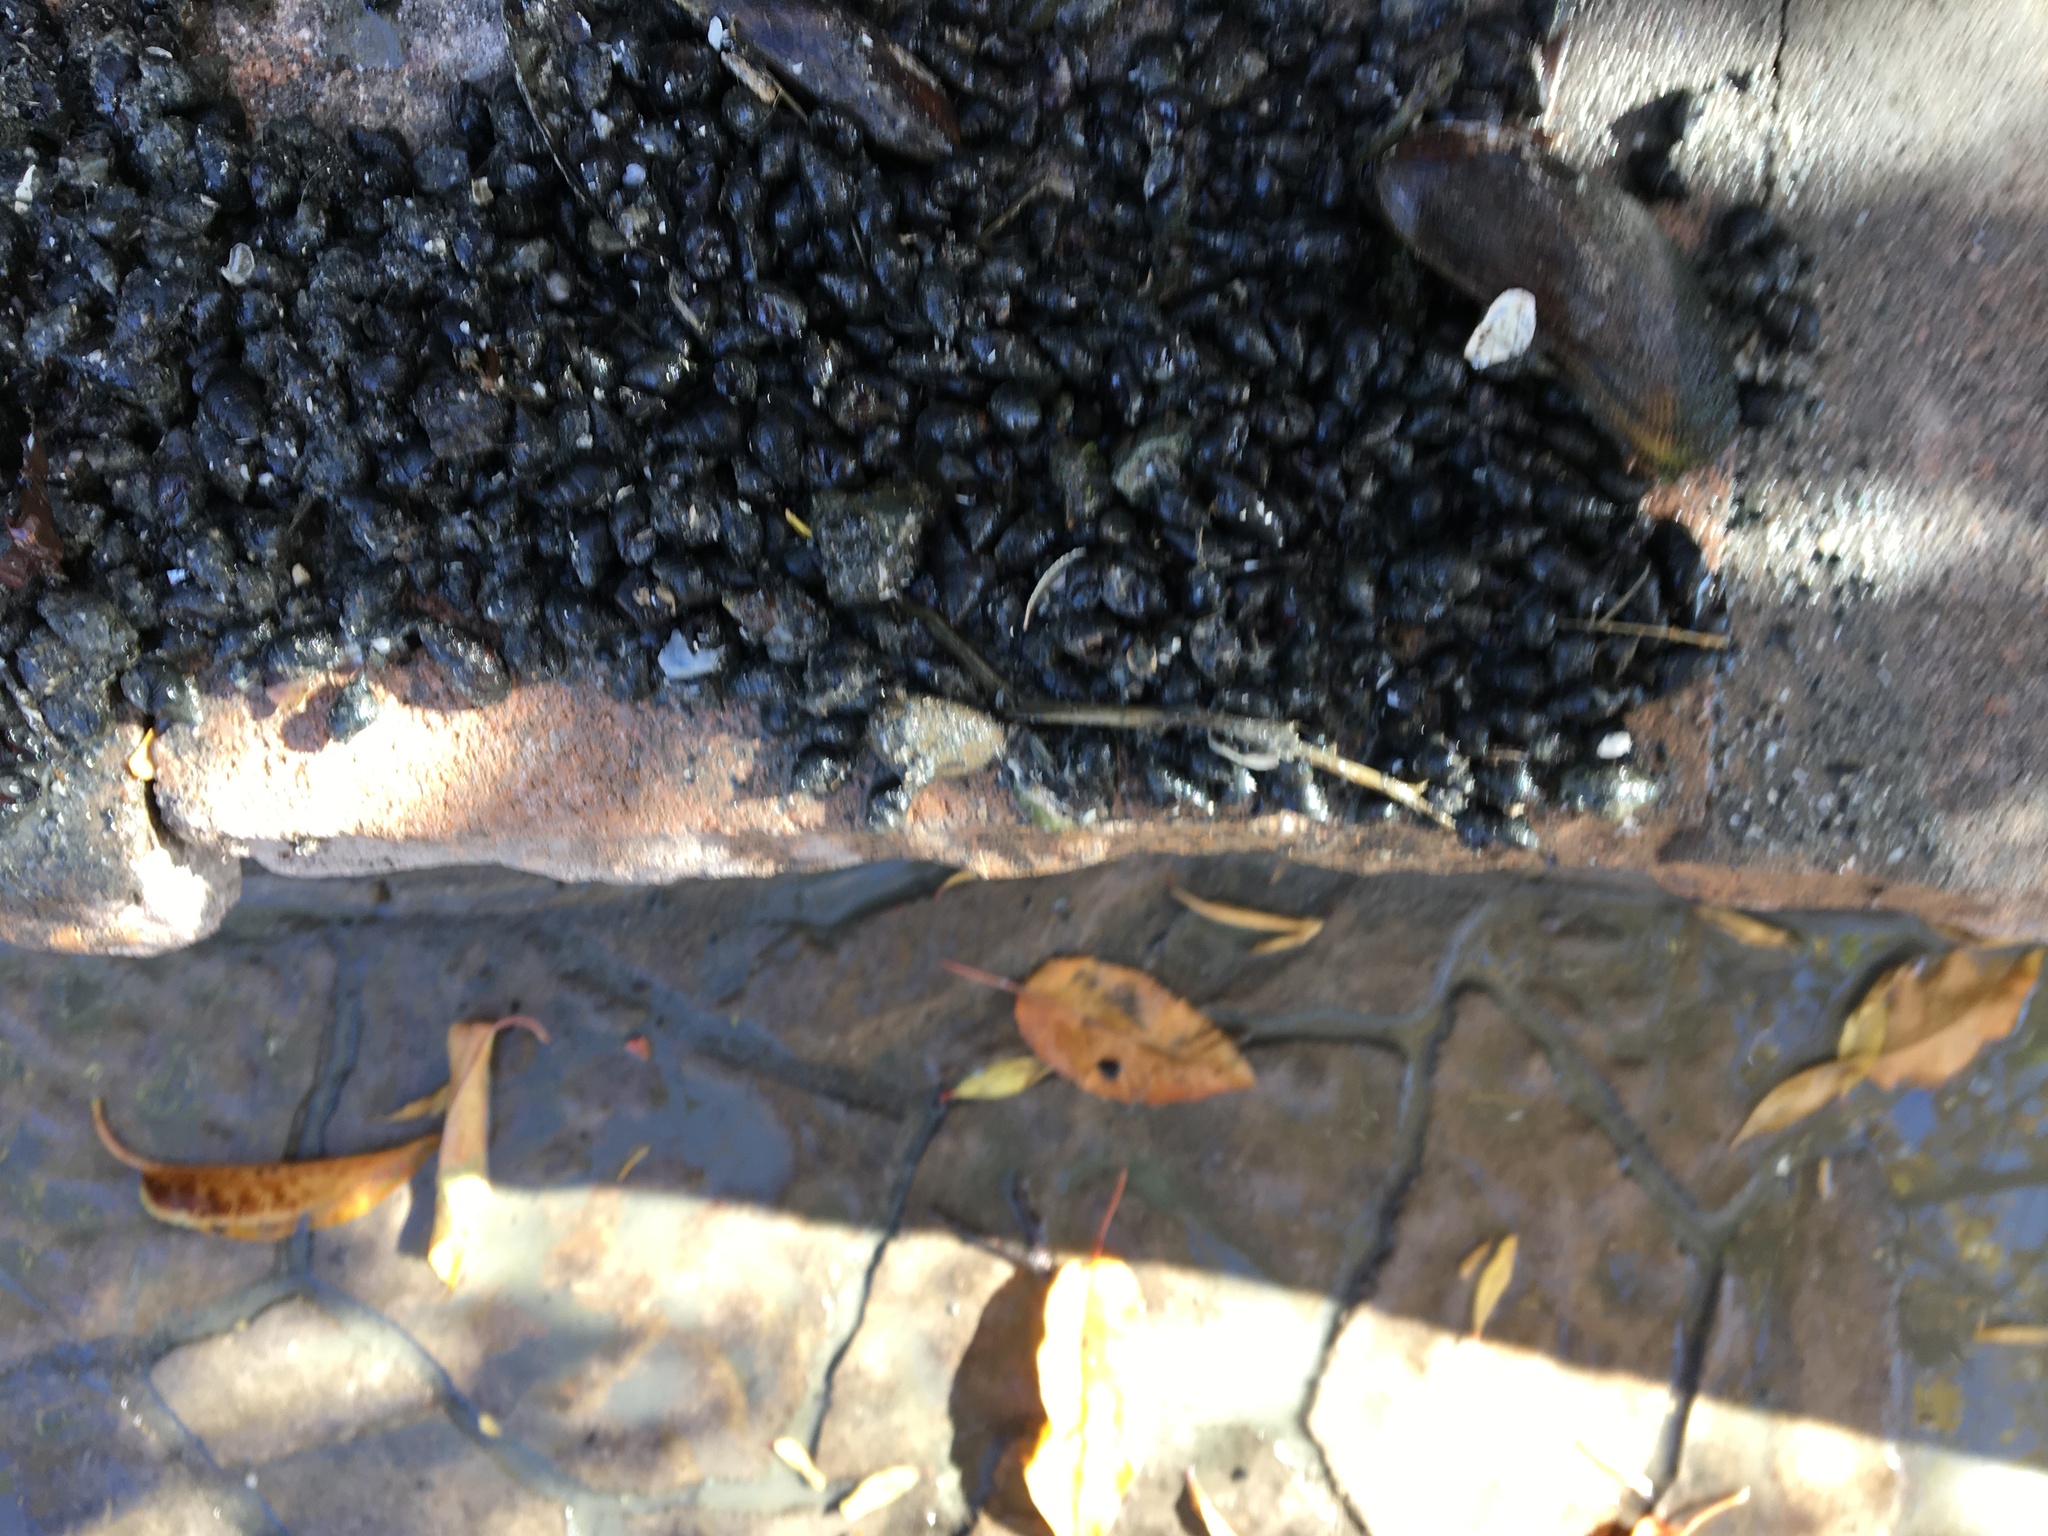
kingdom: Animalia
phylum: Mollusca
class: Gastropoda
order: Neogastropoda
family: Nassariidae
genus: Ilyanassa
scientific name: Ilyanassa obsoleta
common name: Eastern mudsnail
